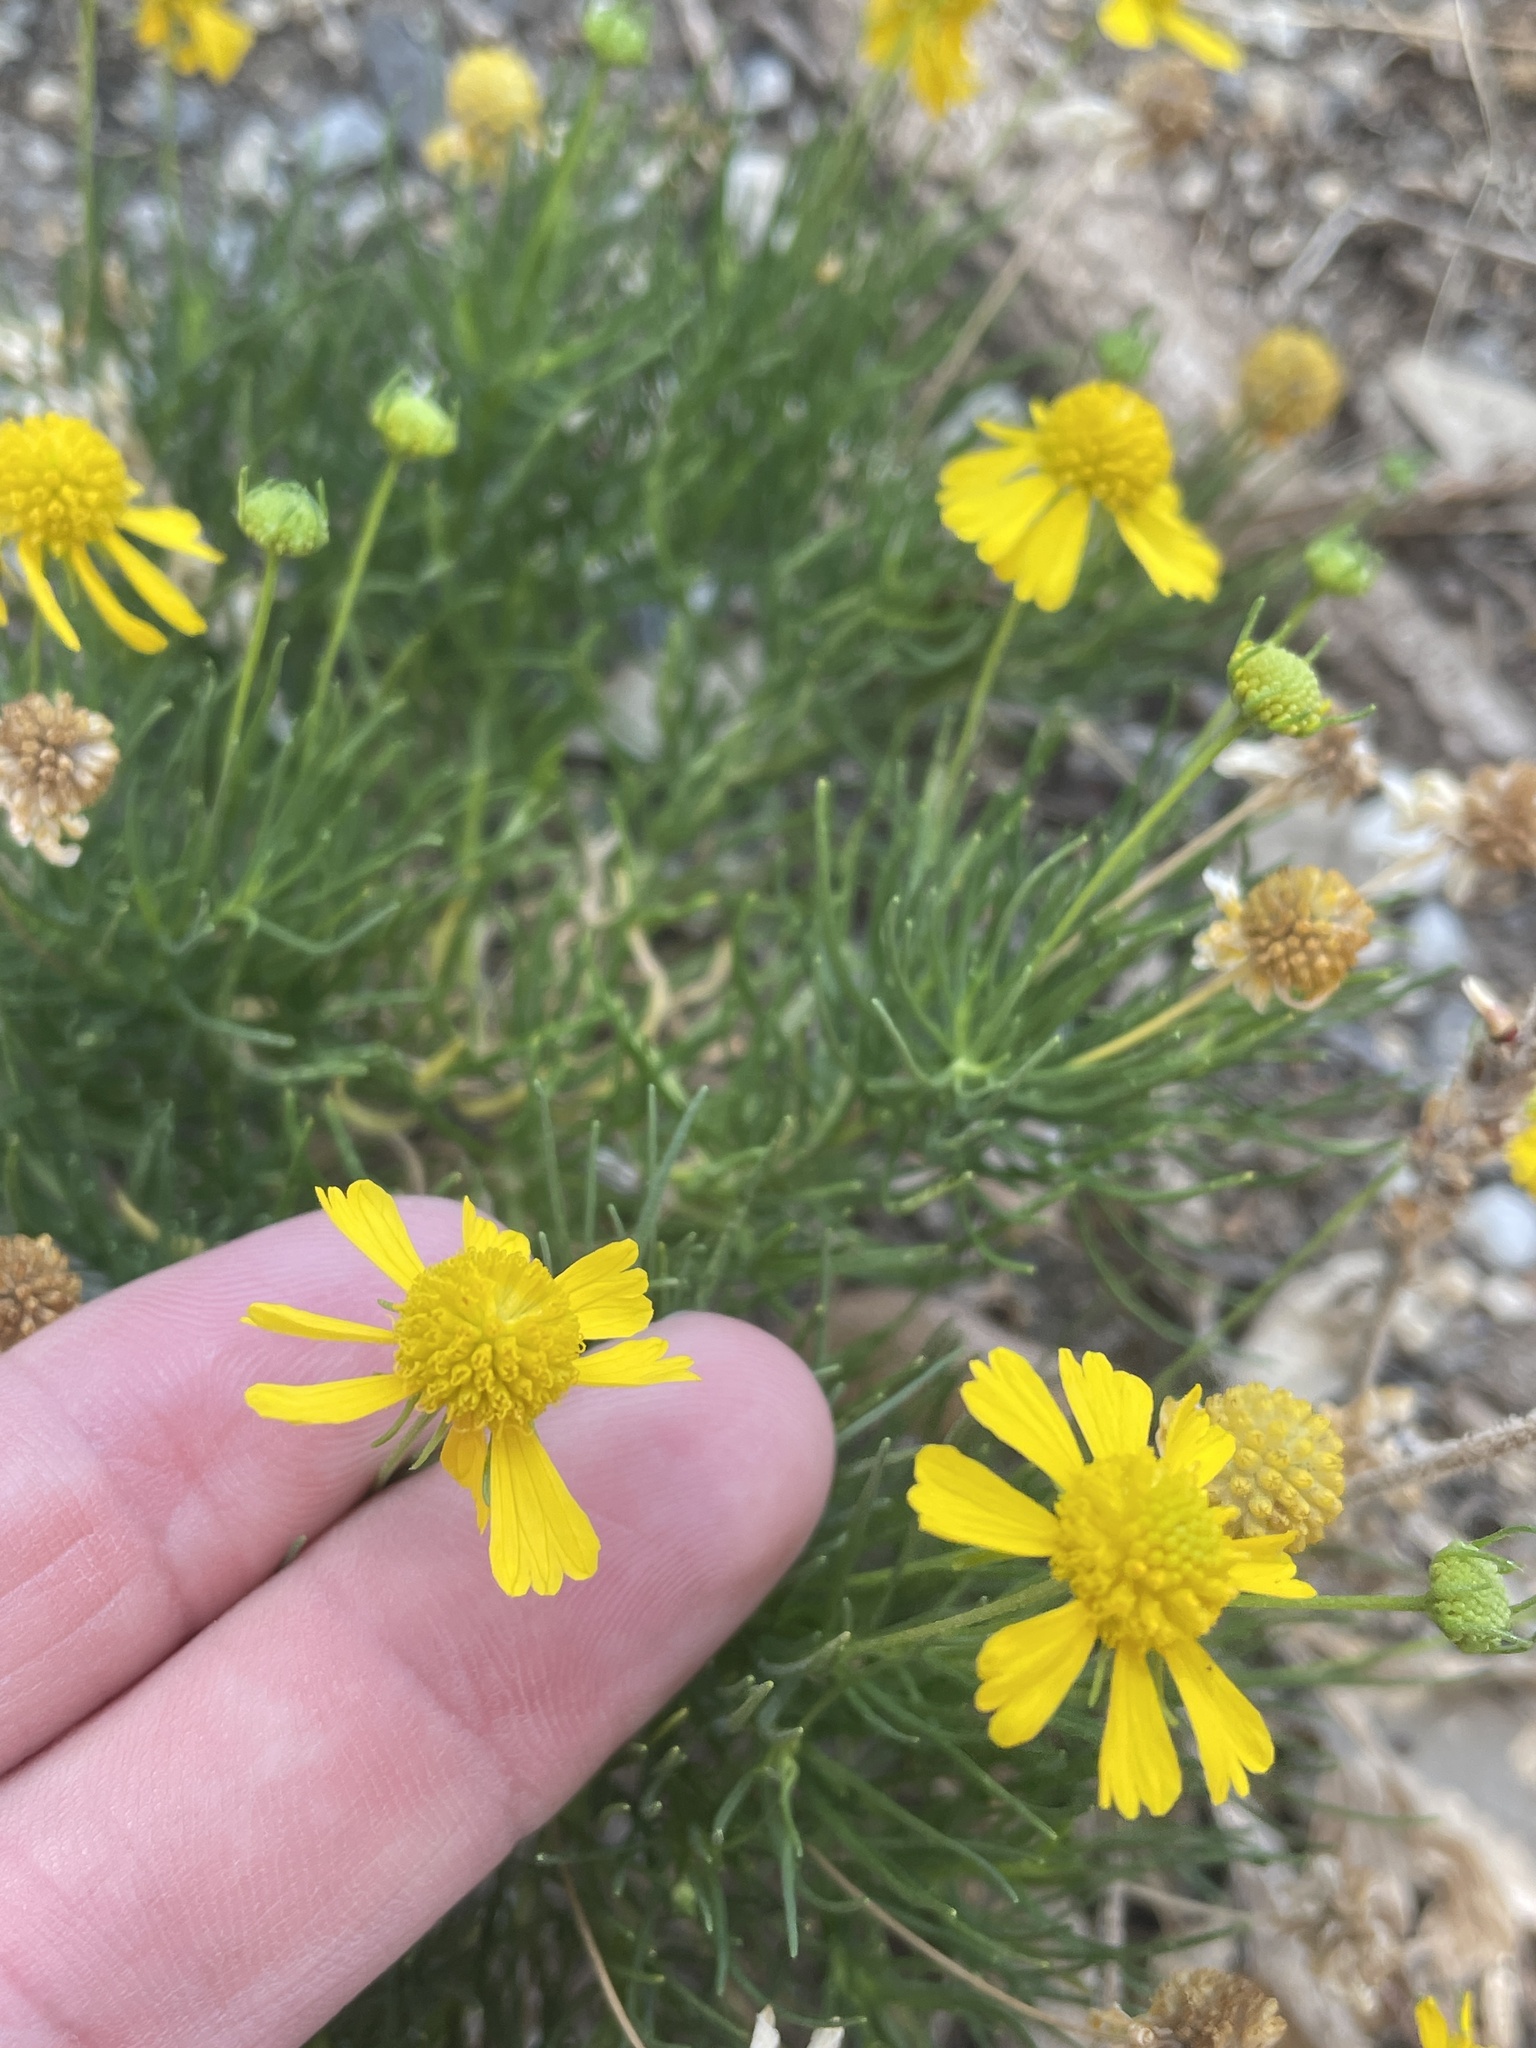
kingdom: Plantae
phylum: Tracheophyta
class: Magnoliopsida
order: Asterales
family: Asteraceae
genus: Helenium
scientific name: Helenium amarum
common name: Bitter sneezeweed
